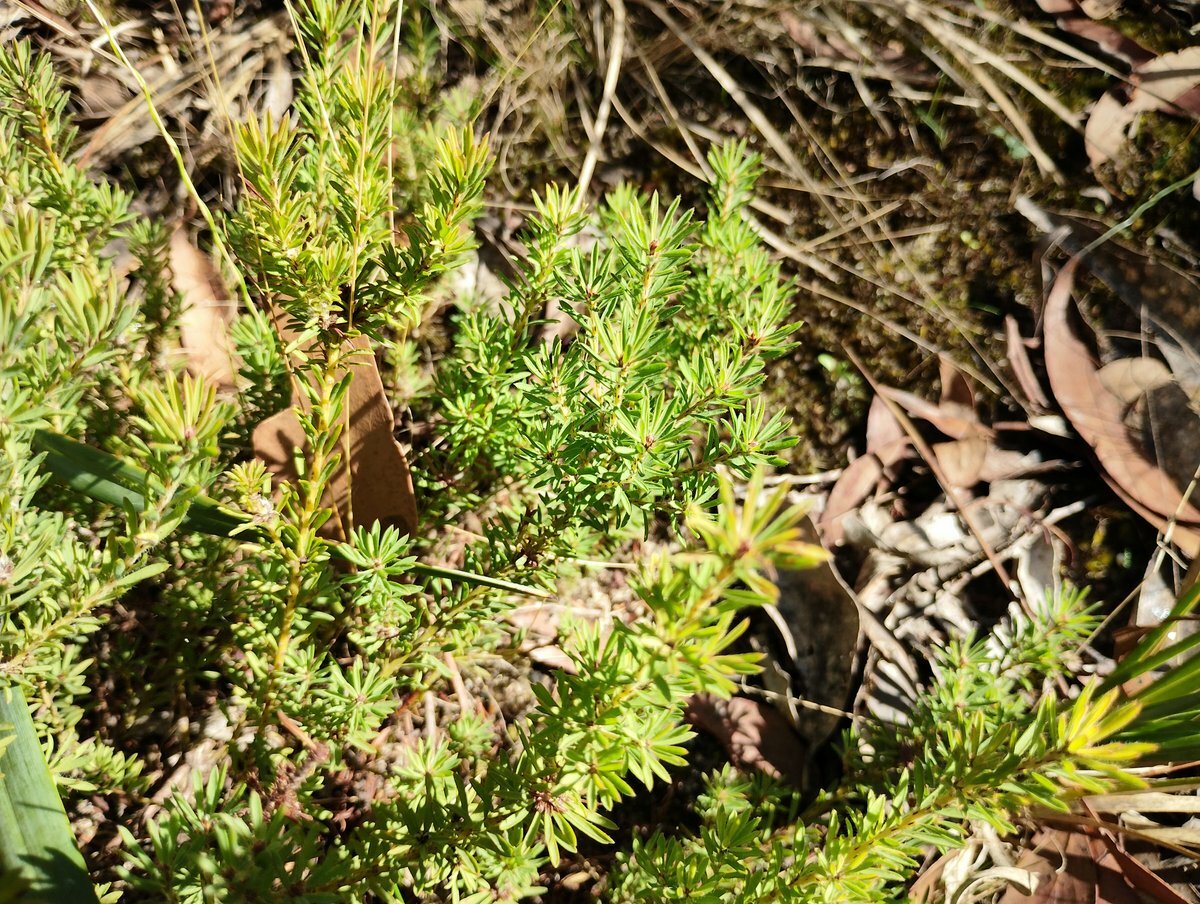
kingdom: Plantae
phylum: Tracheophyta
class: Magnoliopsida
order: Fabales
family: Fabaceae
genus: Pultenaea
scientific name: Pultenaea humilis
